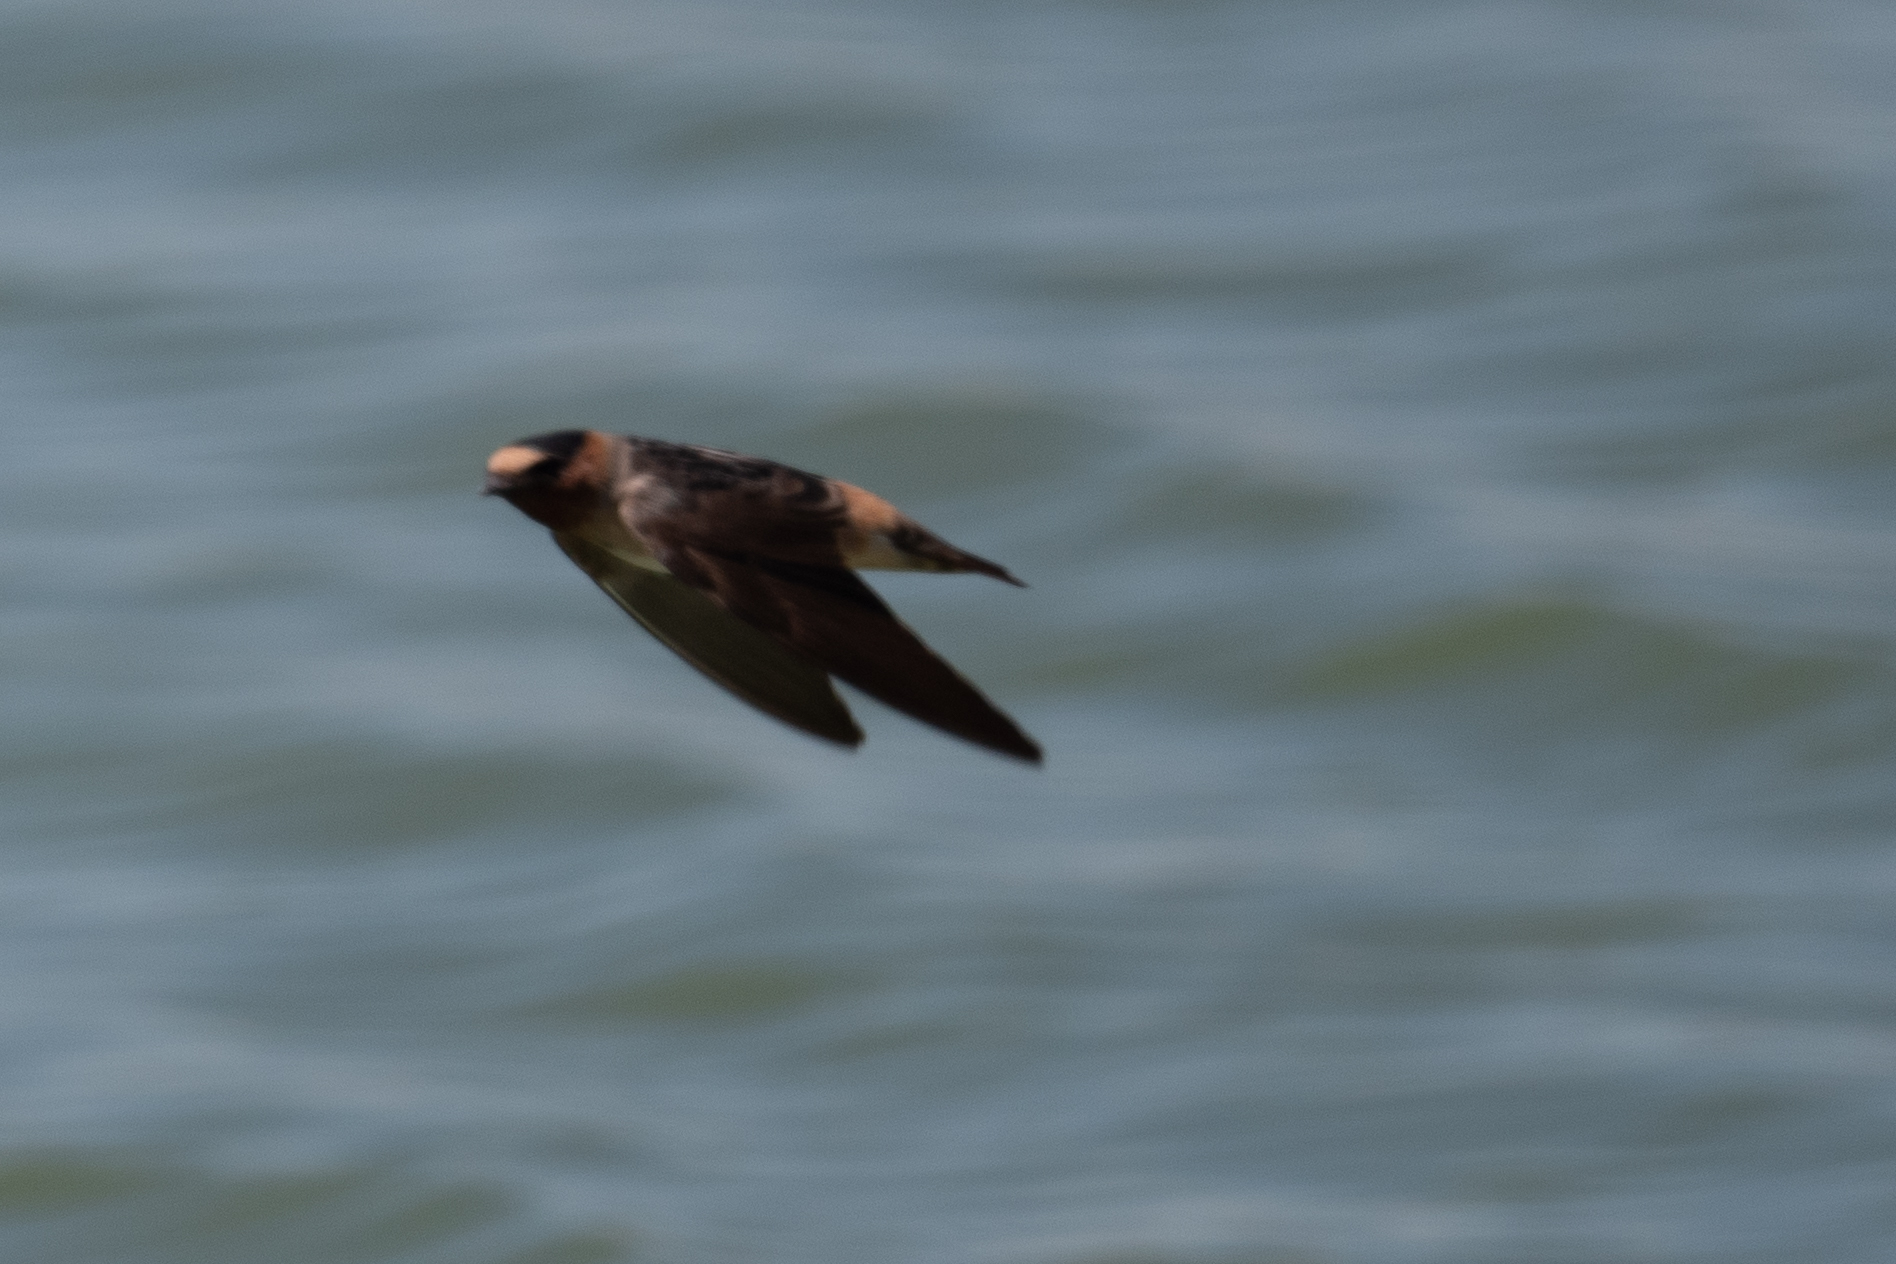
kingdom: Animalia
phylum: Chordata
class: Aves
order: Passeriformes
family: Hirundinidae
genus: Petrochelidon
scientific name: Petrochelidon pyrrhonota
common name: American cliff swallow
